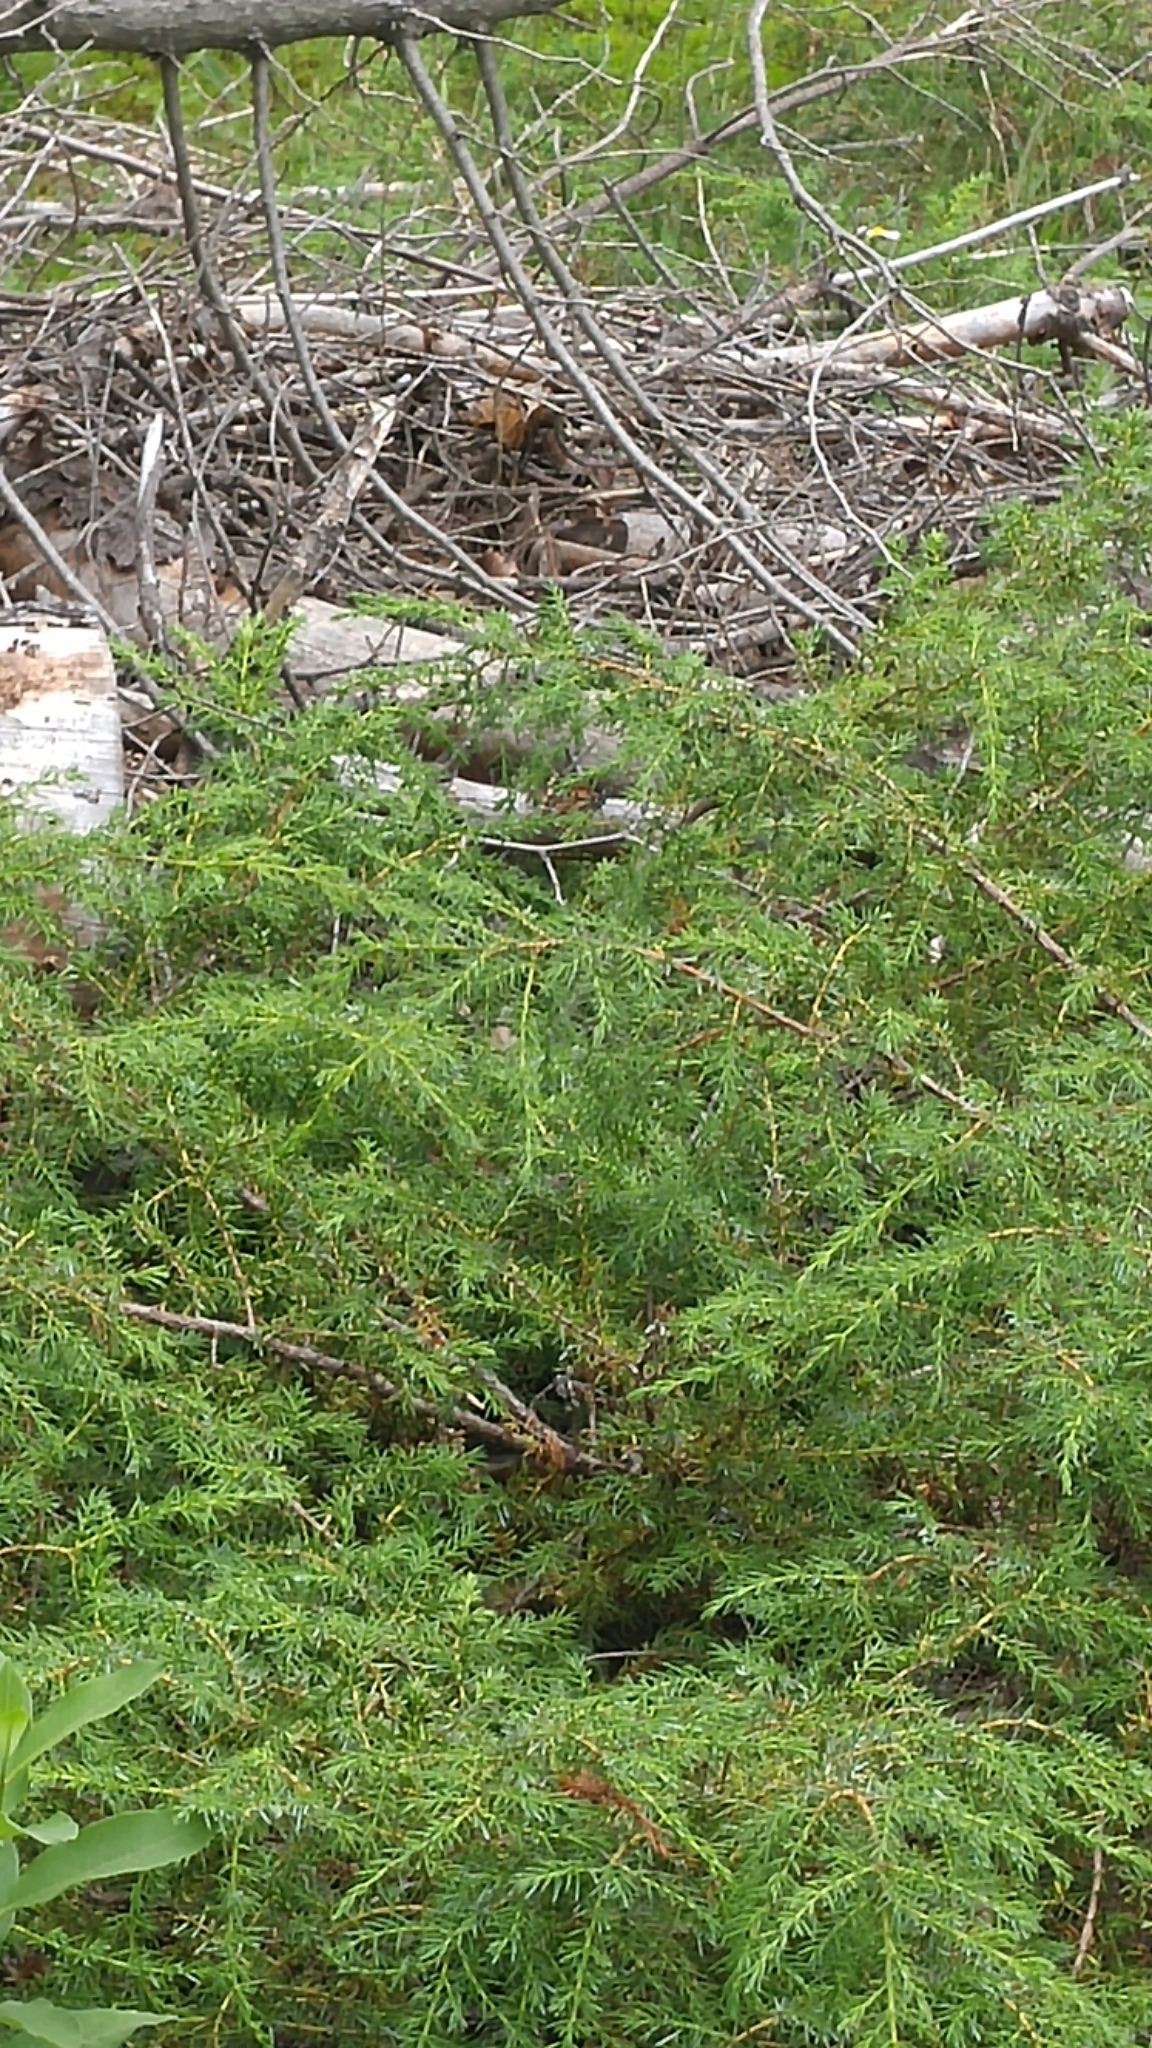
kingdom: Animalia
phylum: Arthropoda
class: Insecta
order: Lepidoptera
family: Nymphalidae
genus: Danaus
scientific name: Danaus plexippus
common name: Monarch
